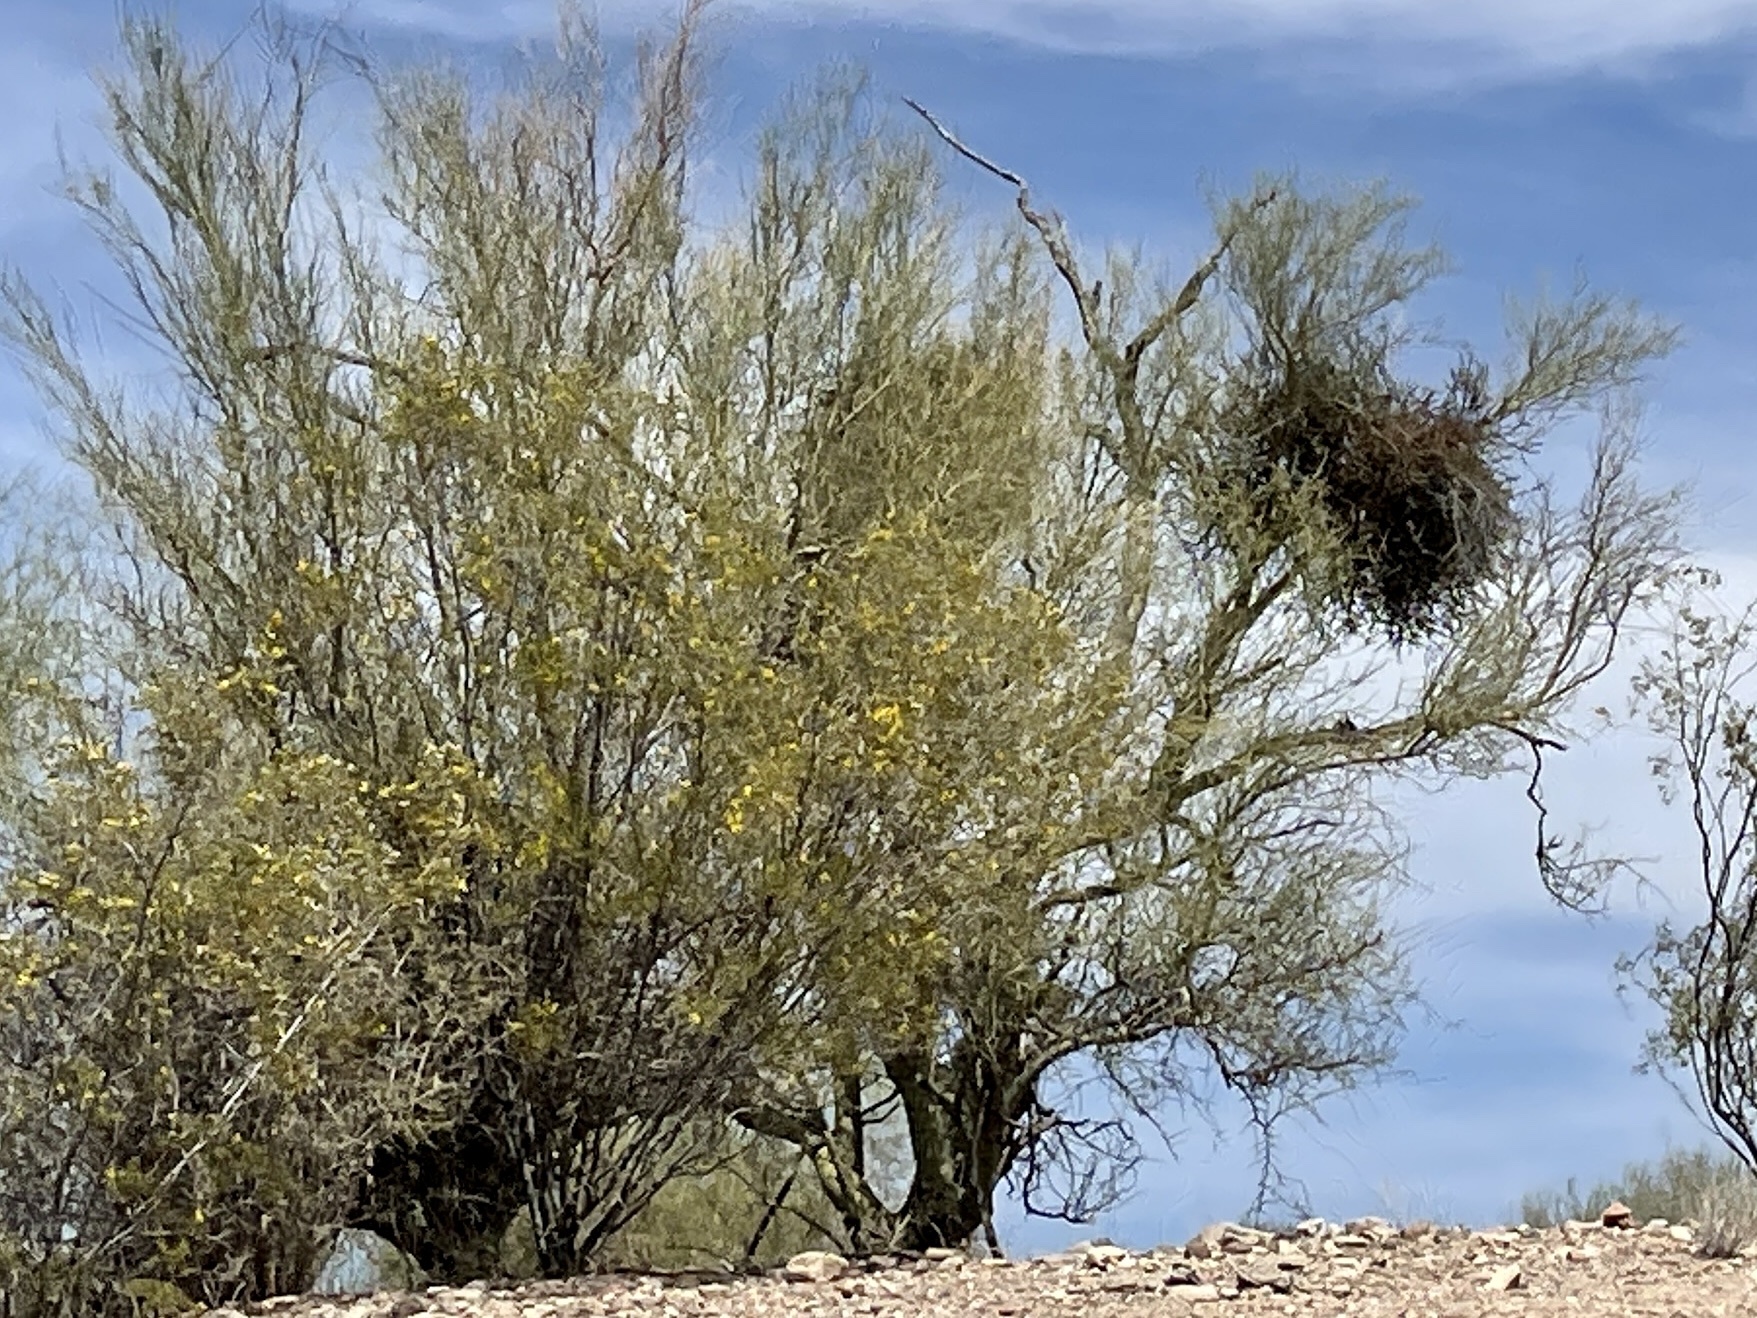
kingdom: Plantae
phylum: Tracheophyta
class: Magnoliopsida
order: Fabales
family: Fabaceae
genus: Parkinsonia
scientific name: Parkinsonia microphylla
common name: Yellow paloverde
